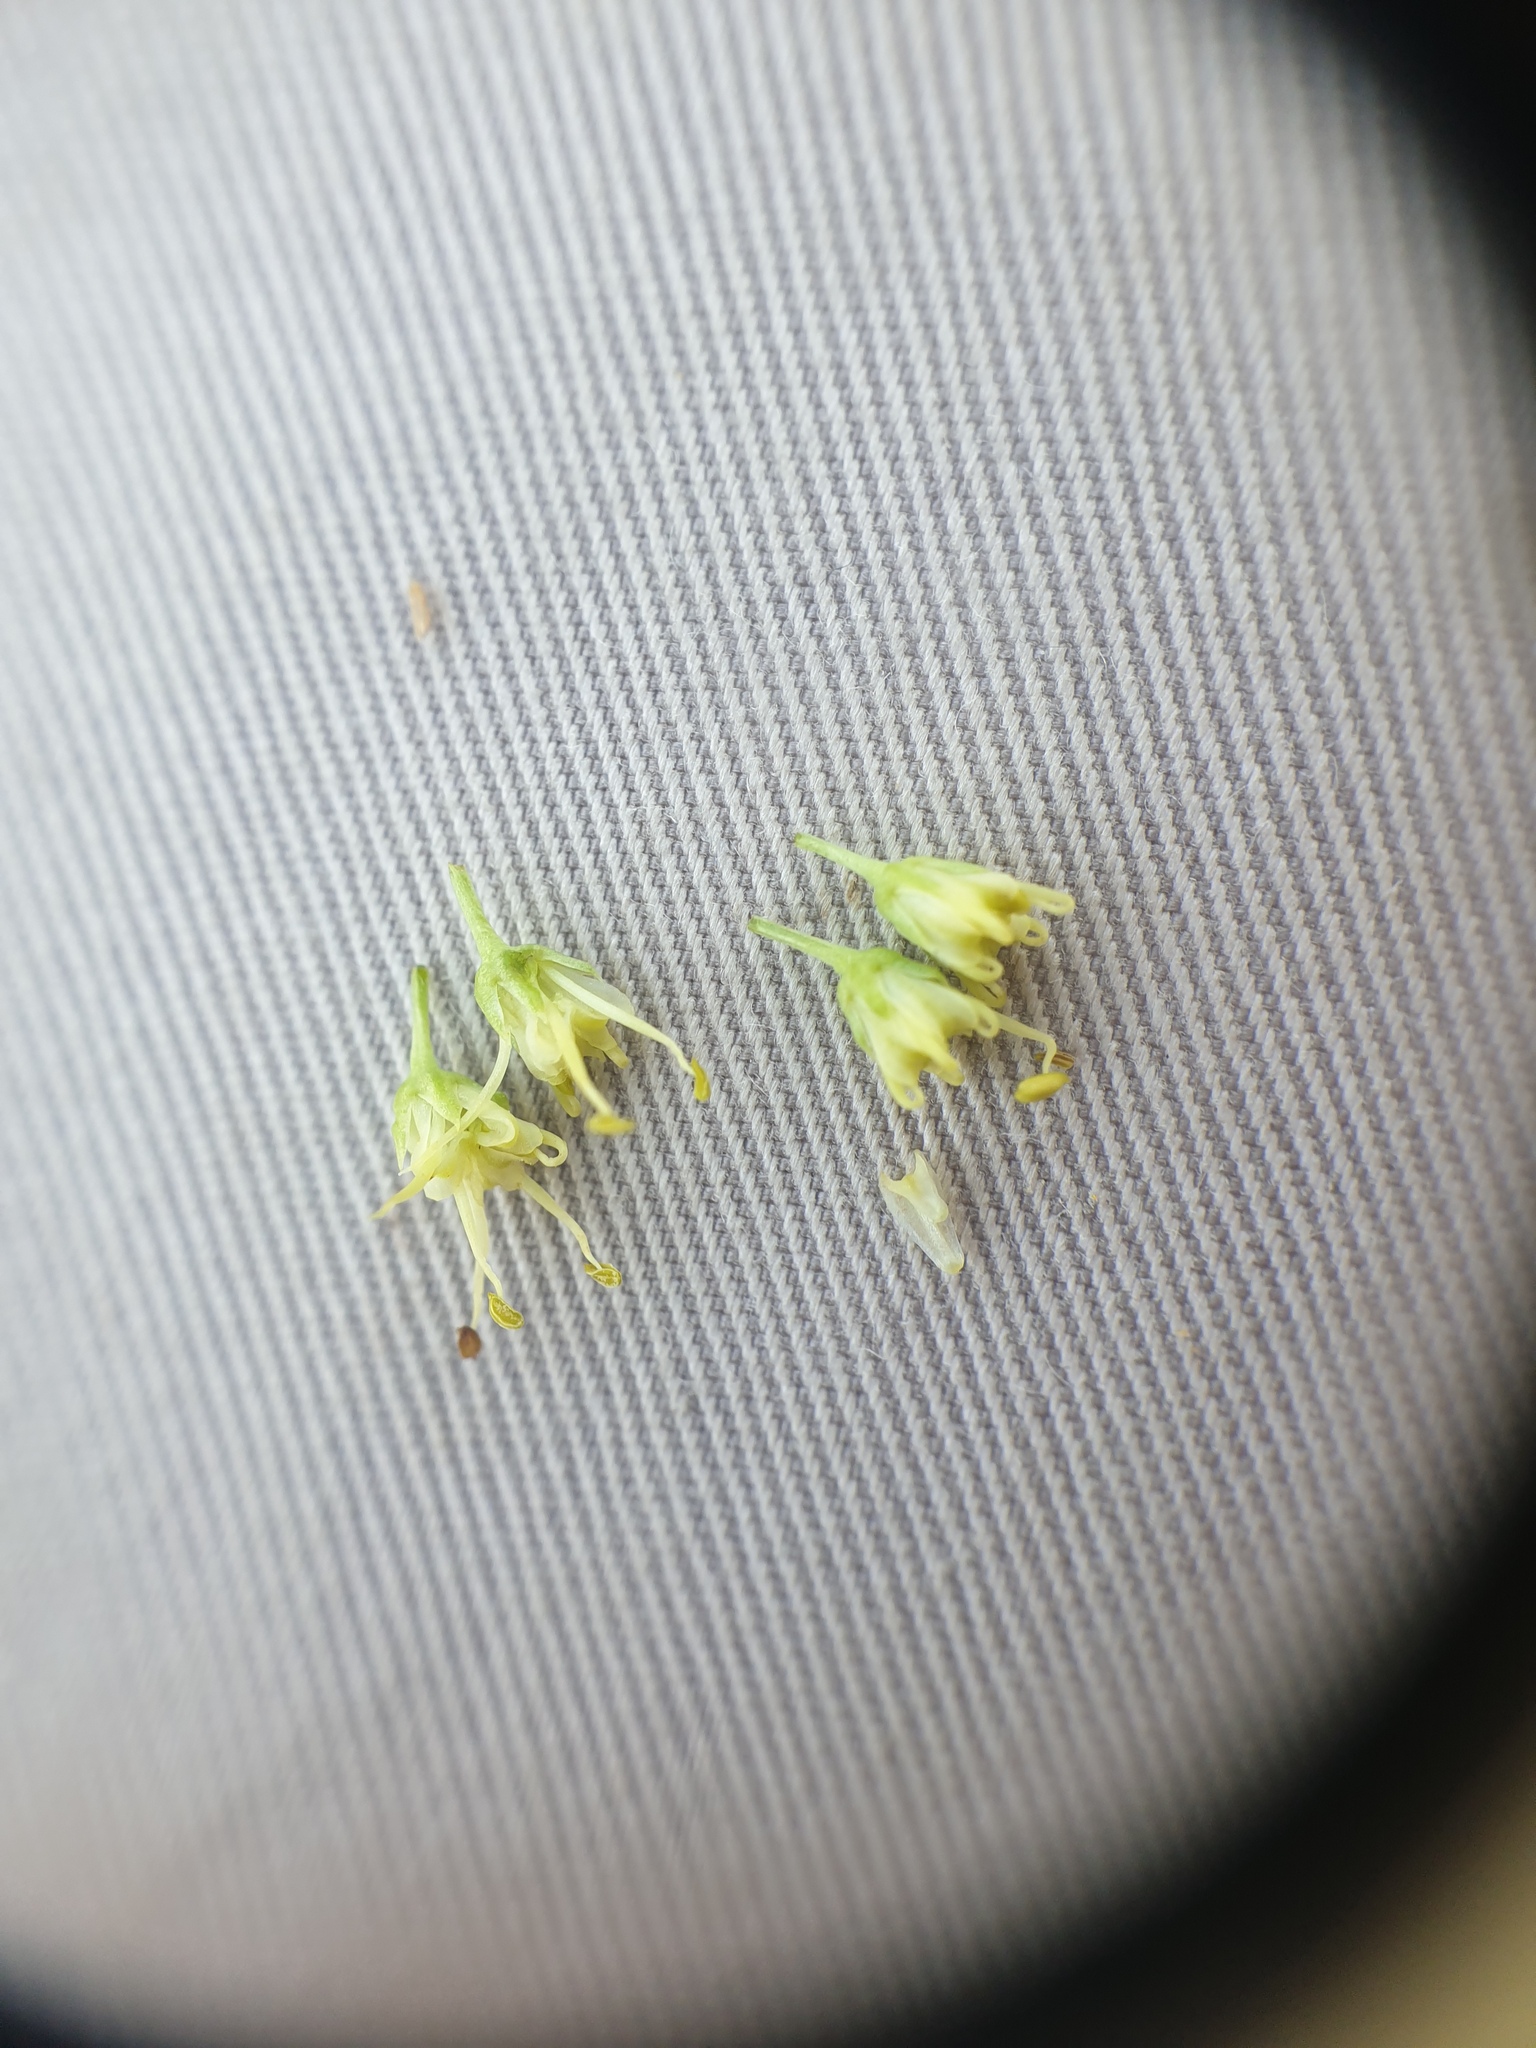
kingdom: Plantae
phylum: Tracheophyta
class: Magnoliopsida
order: Apiales
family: Apiaceae
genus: Sanicula
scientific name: Sanicula marilandica
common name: Black snakeroot
